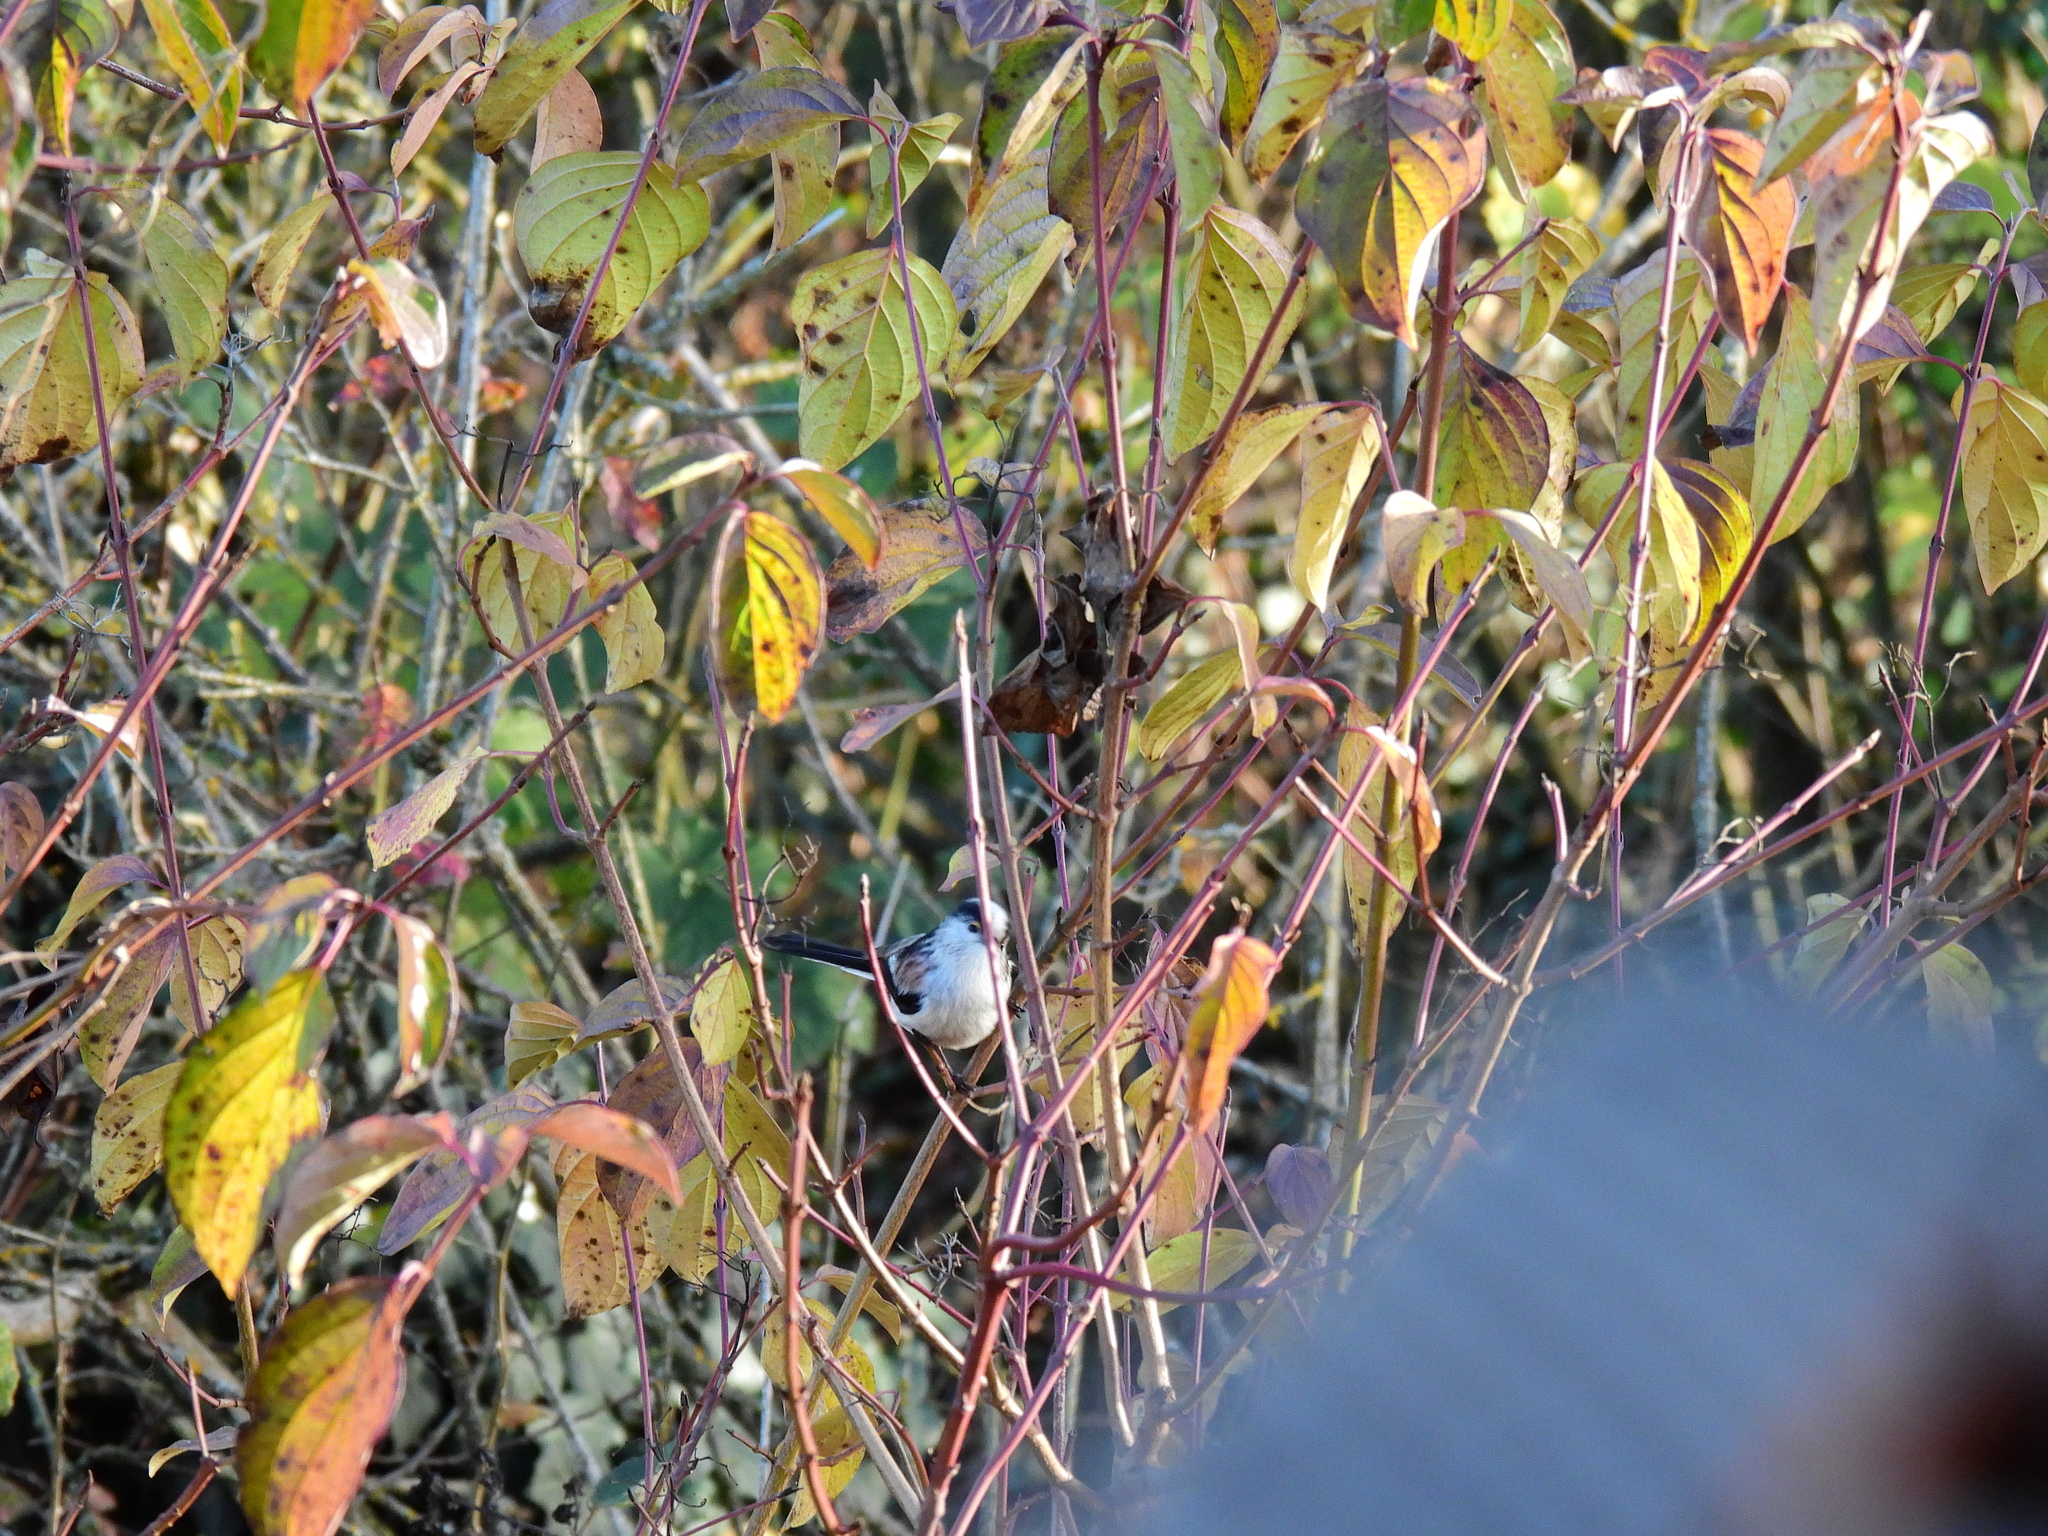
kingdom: Animalia
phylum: Chordata
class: Aves
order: Passeriformes
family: Aegithalidae
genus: Aegithalos
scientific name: Aegithalos caudatus
